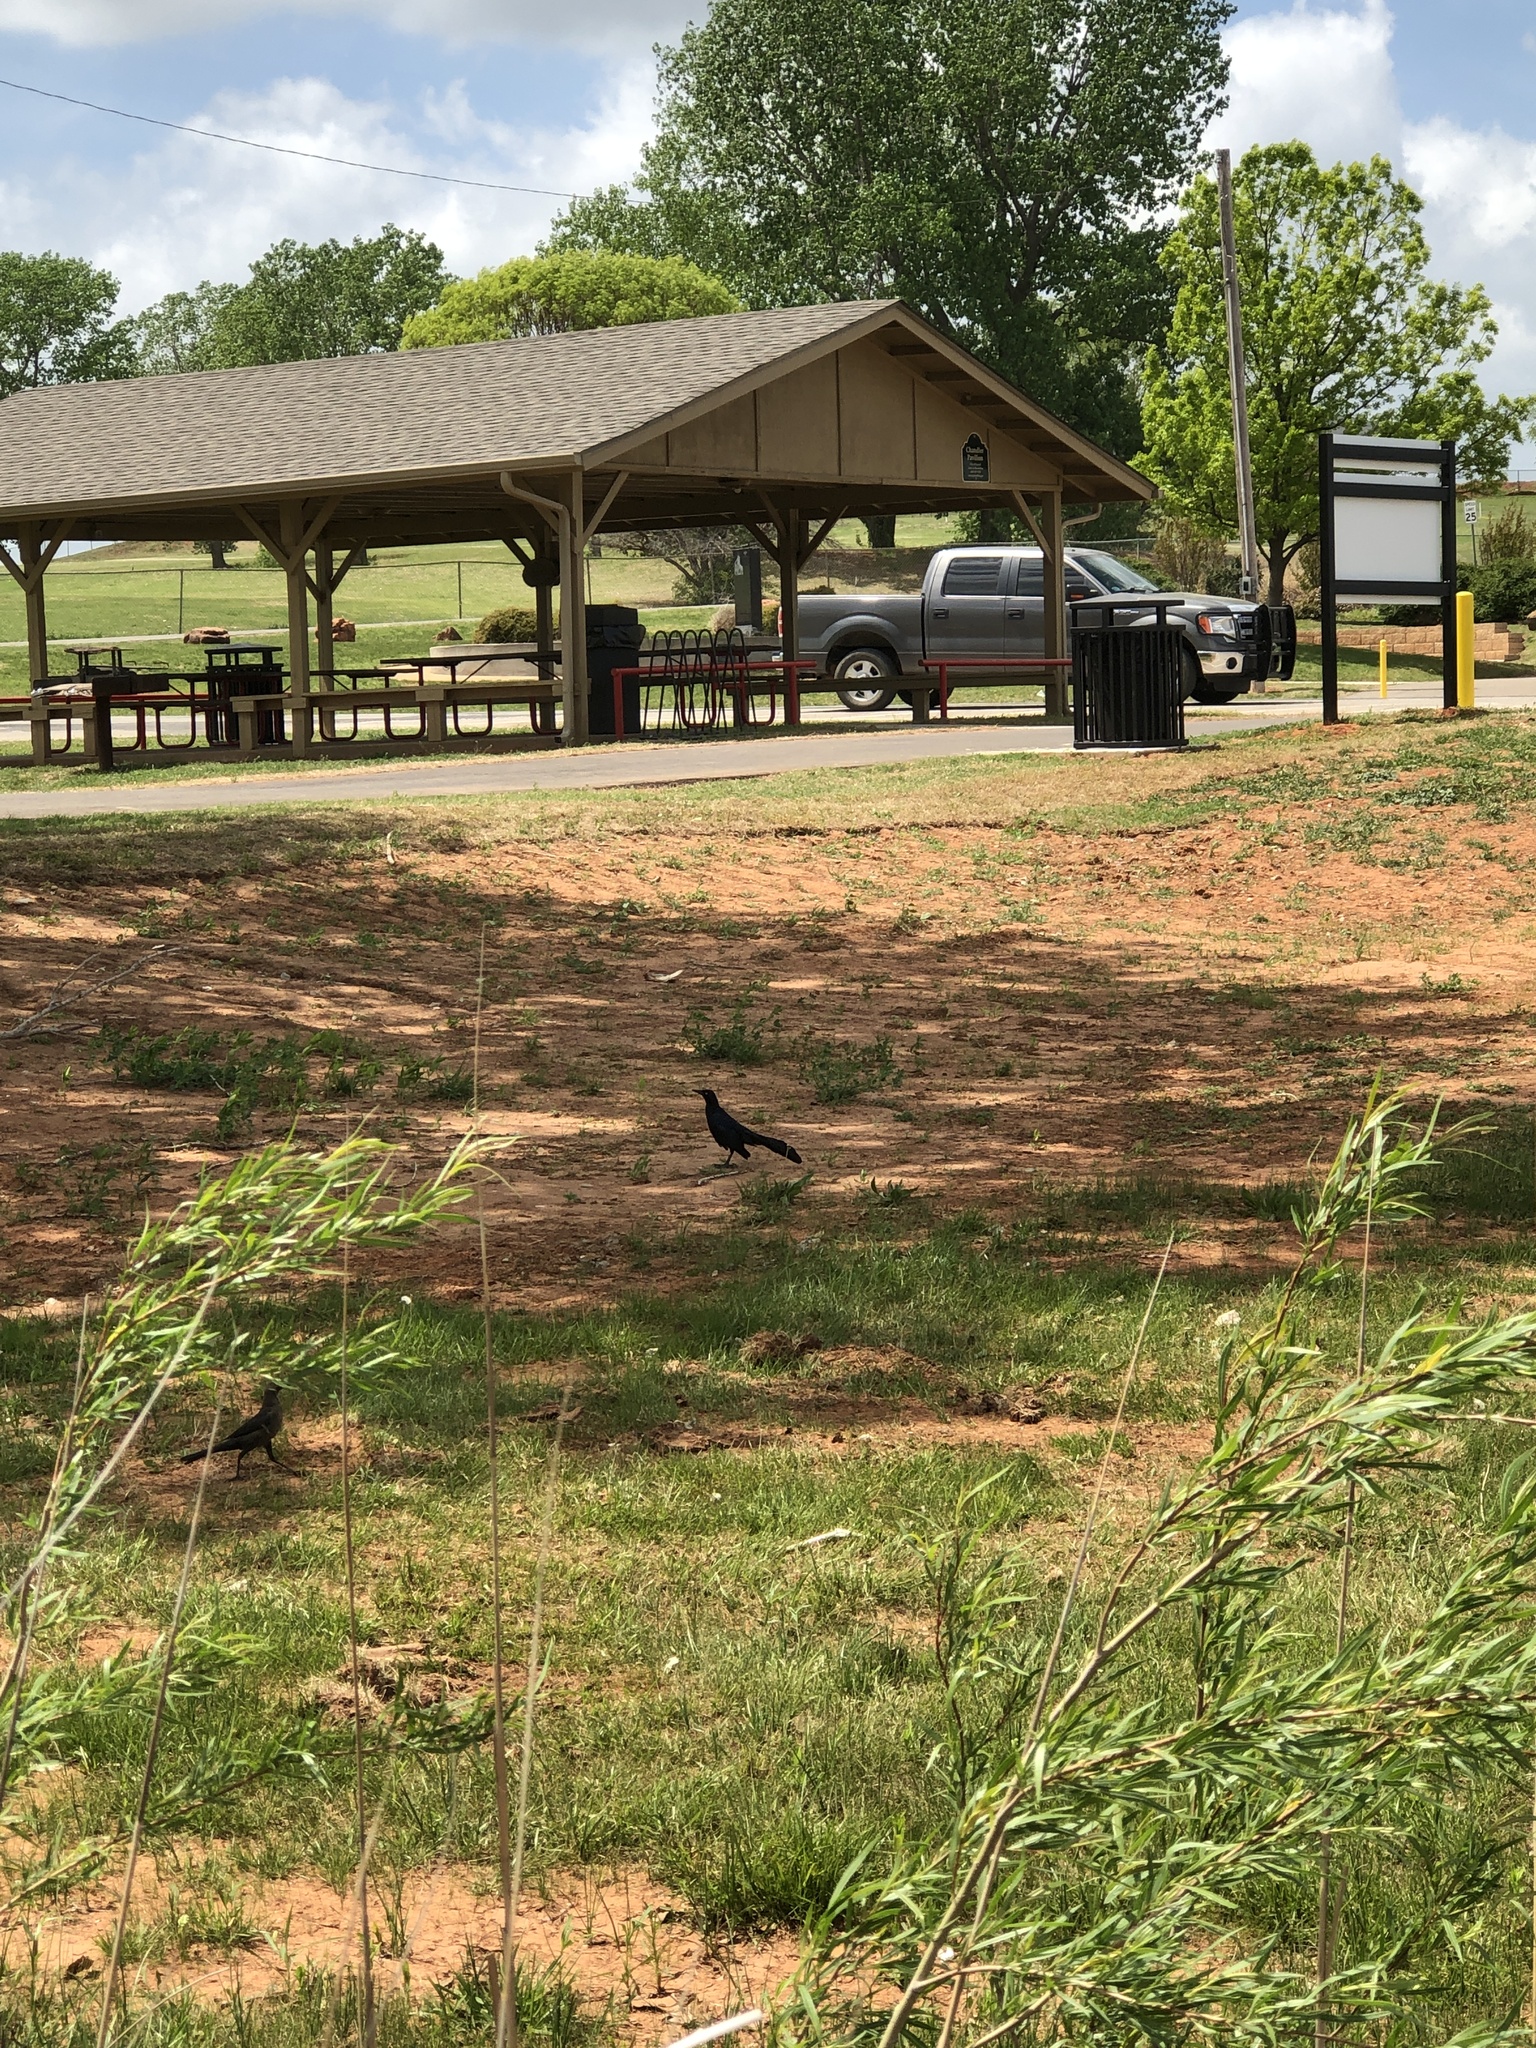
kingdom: Animalia
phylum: Chordata
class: Aves
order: Passeriformes
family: Icteridae
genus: Quiscalus
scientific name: Quiscalus mexicanus
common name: Great-tailed grackle
